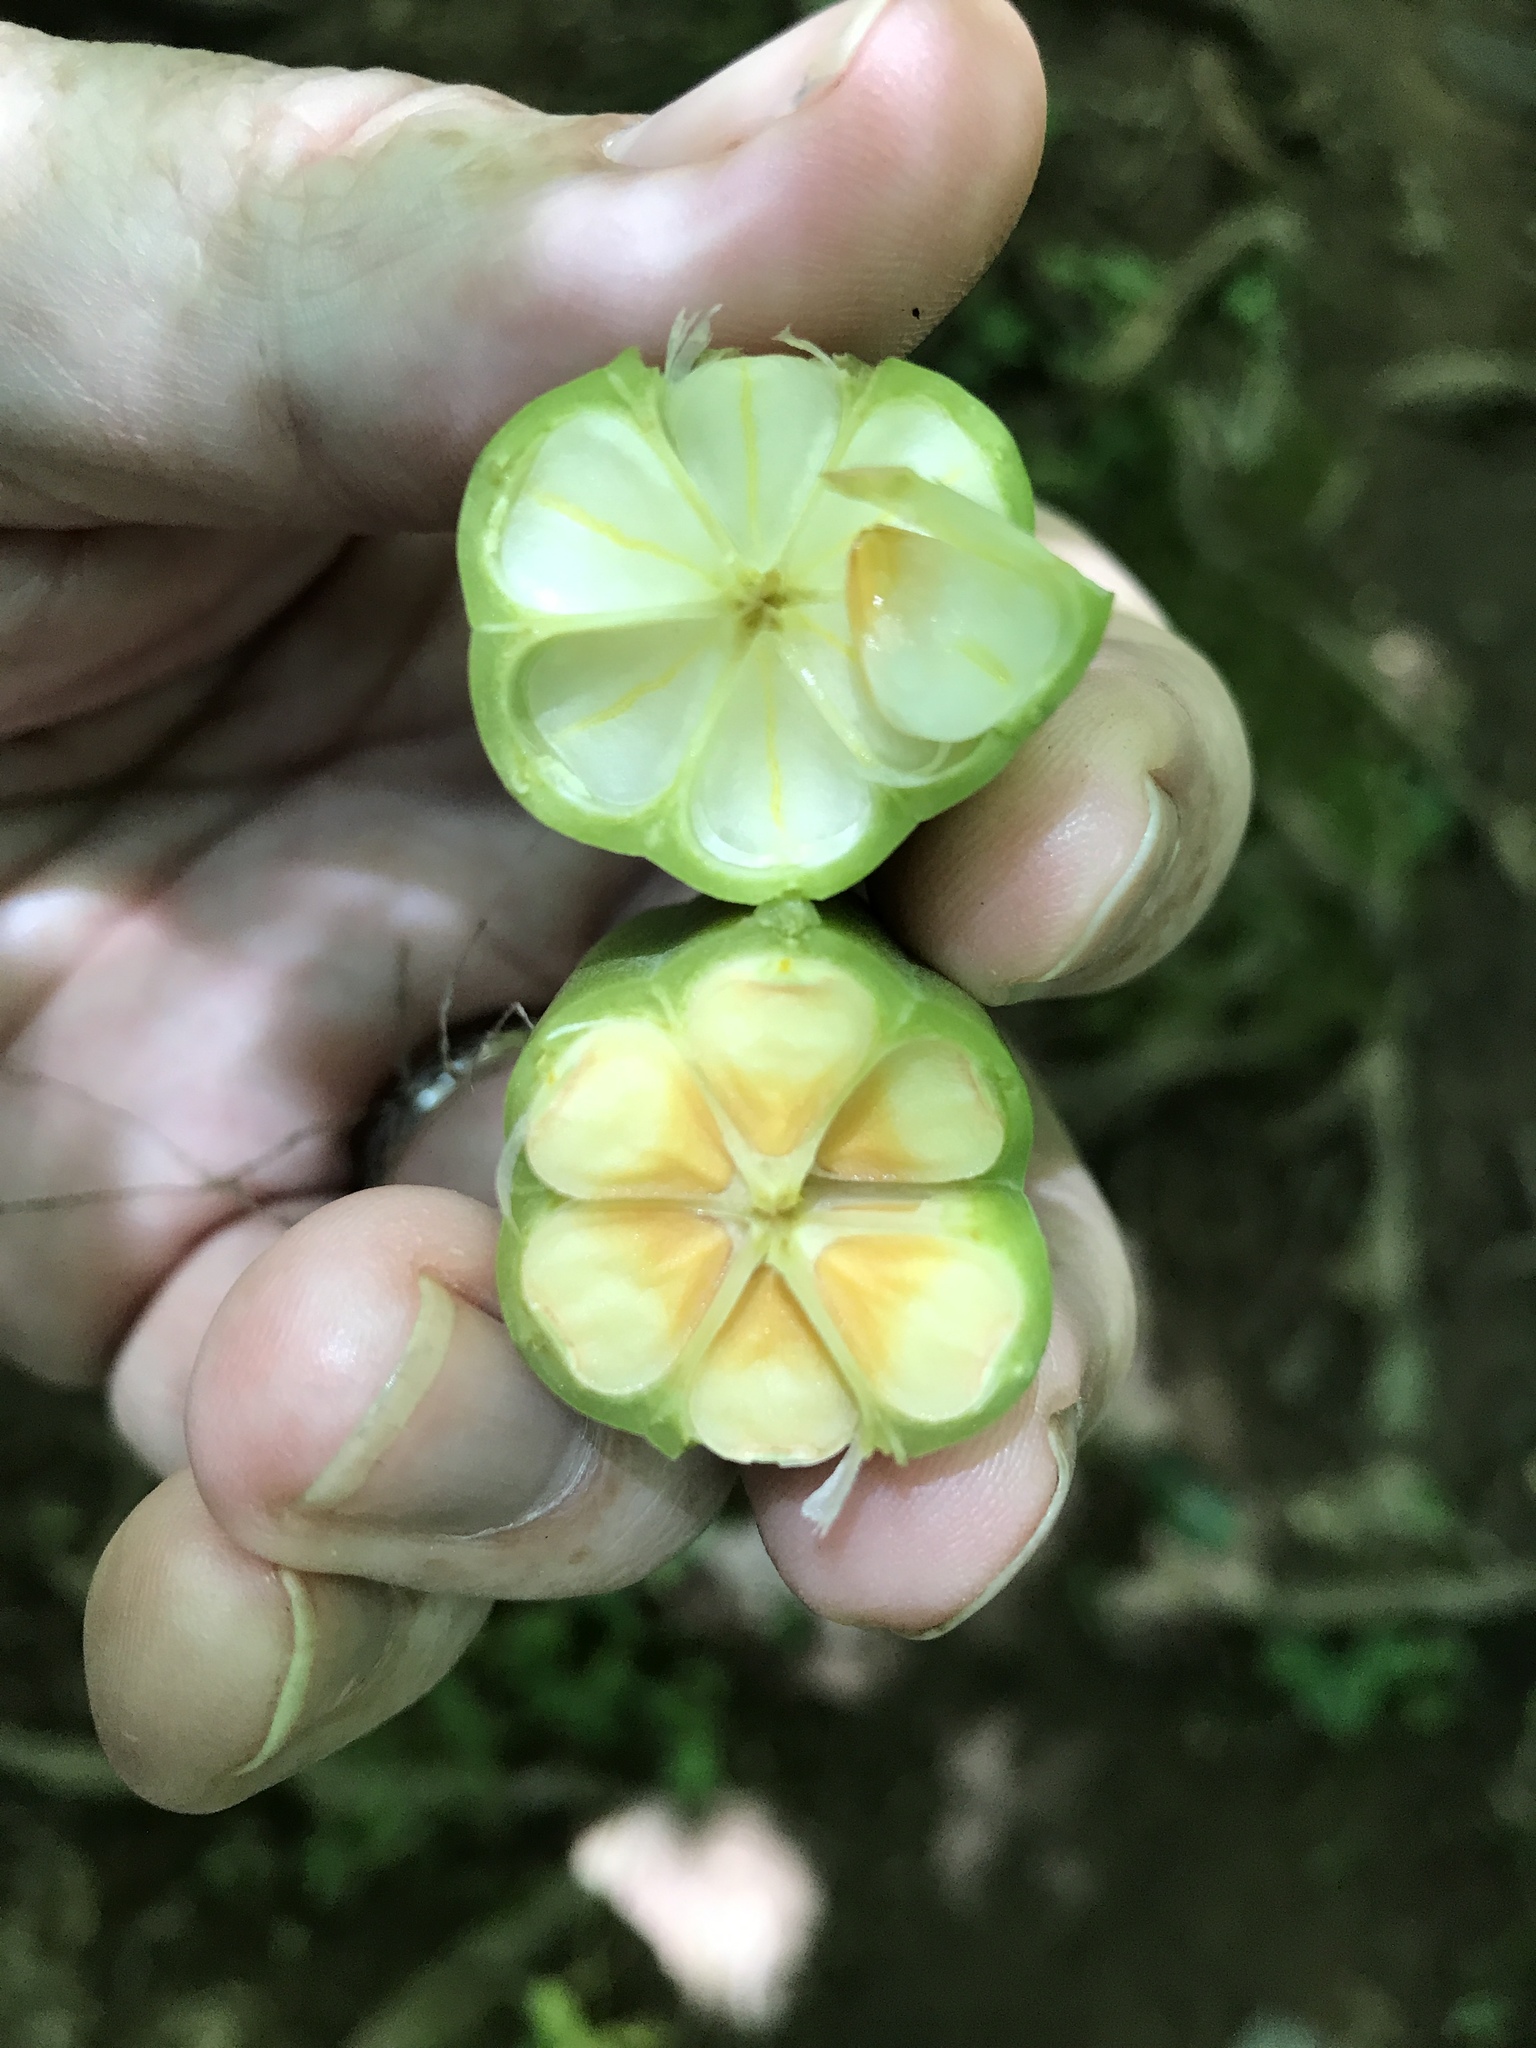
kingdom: Plantae
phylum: Tracheophyta
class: Magnoliopsida
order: Piperales
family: Aristolochiaceae
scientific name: Aristolochiaceae
